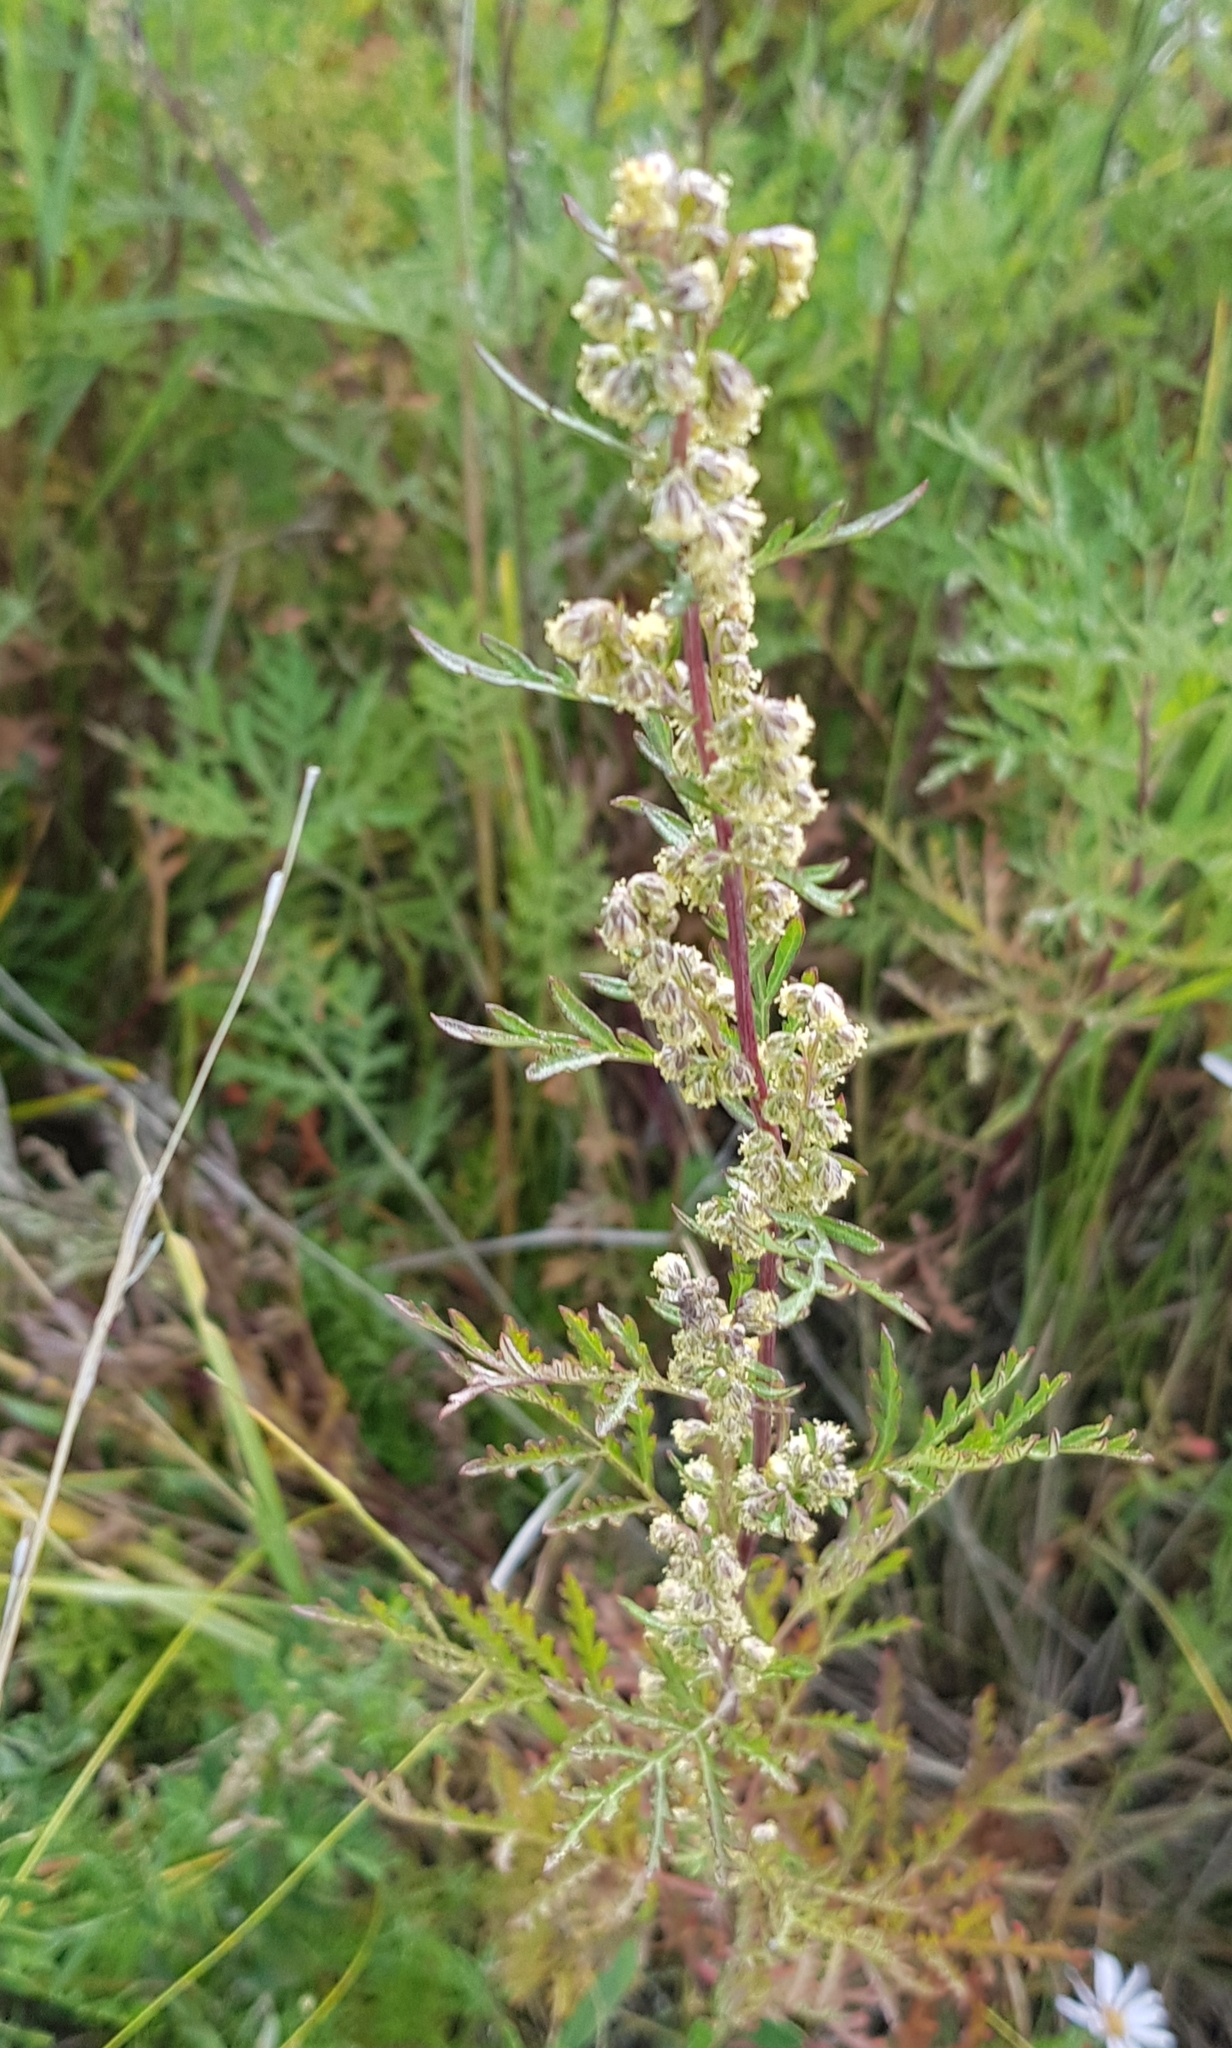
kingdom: Plantae
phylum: Tracheophyta
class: Magnoliopsida
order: Asterales
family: Asteraceae
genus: Artemisia
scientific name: Artemisia gmelinii
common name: Gmelin's wormwood
